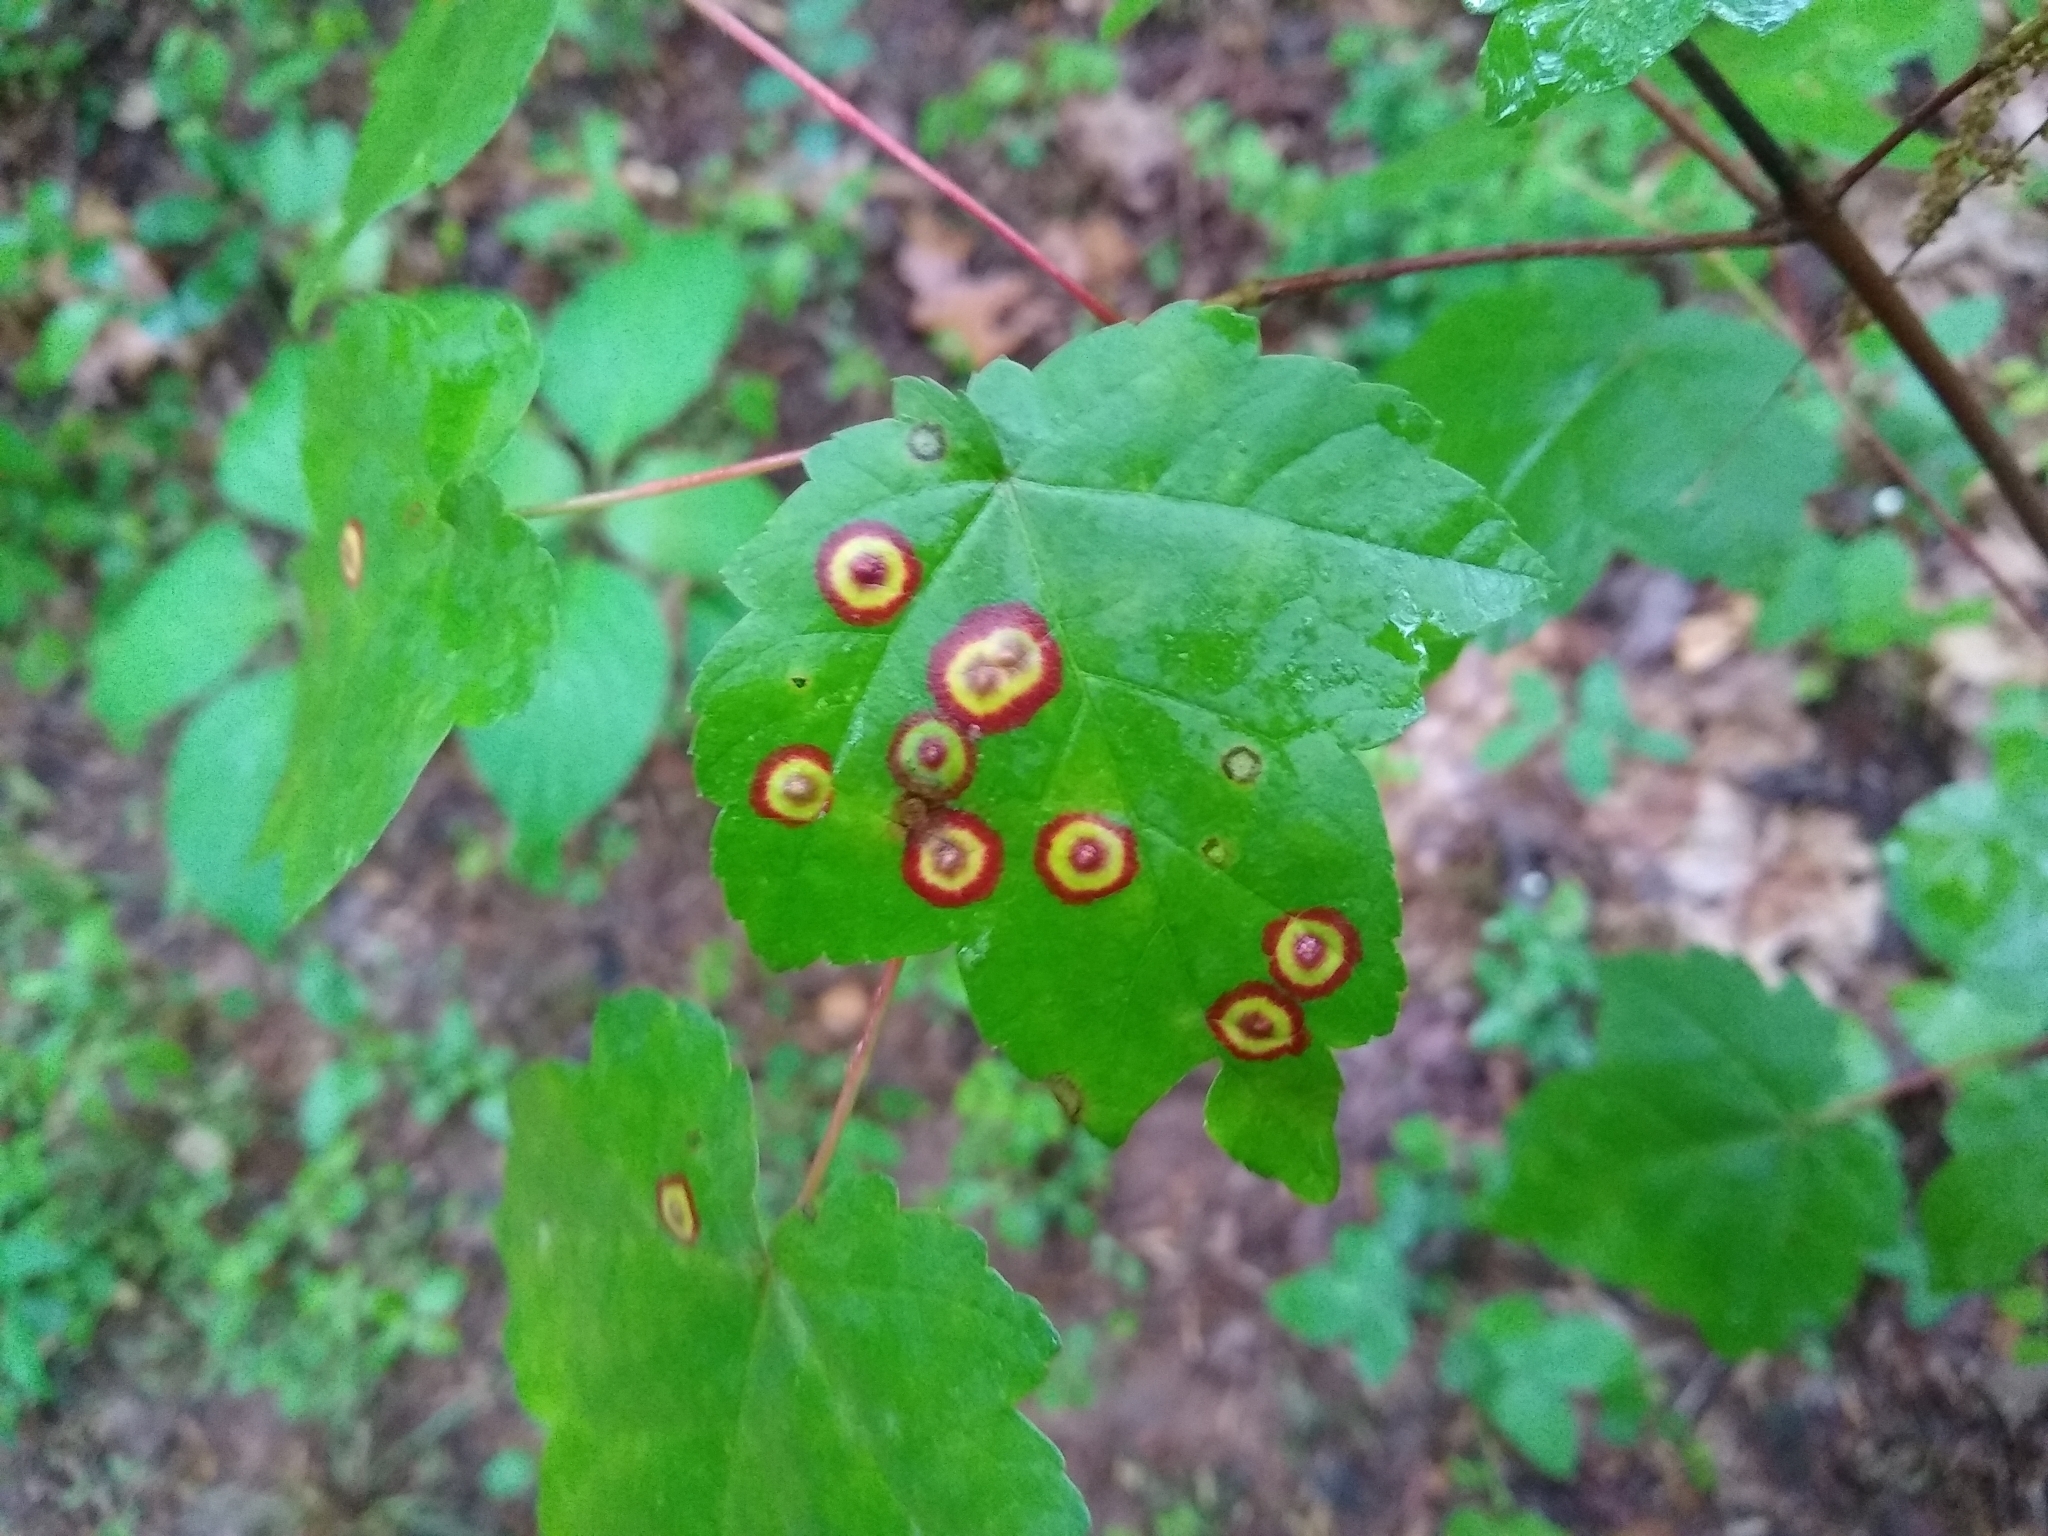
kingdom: Animalia
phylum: Arthropoda
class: Insecta
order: Diptera
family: Cecidomyiidae
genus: Acericecis
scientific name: Acericecis ocellaris
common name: Ocellate gall midge
